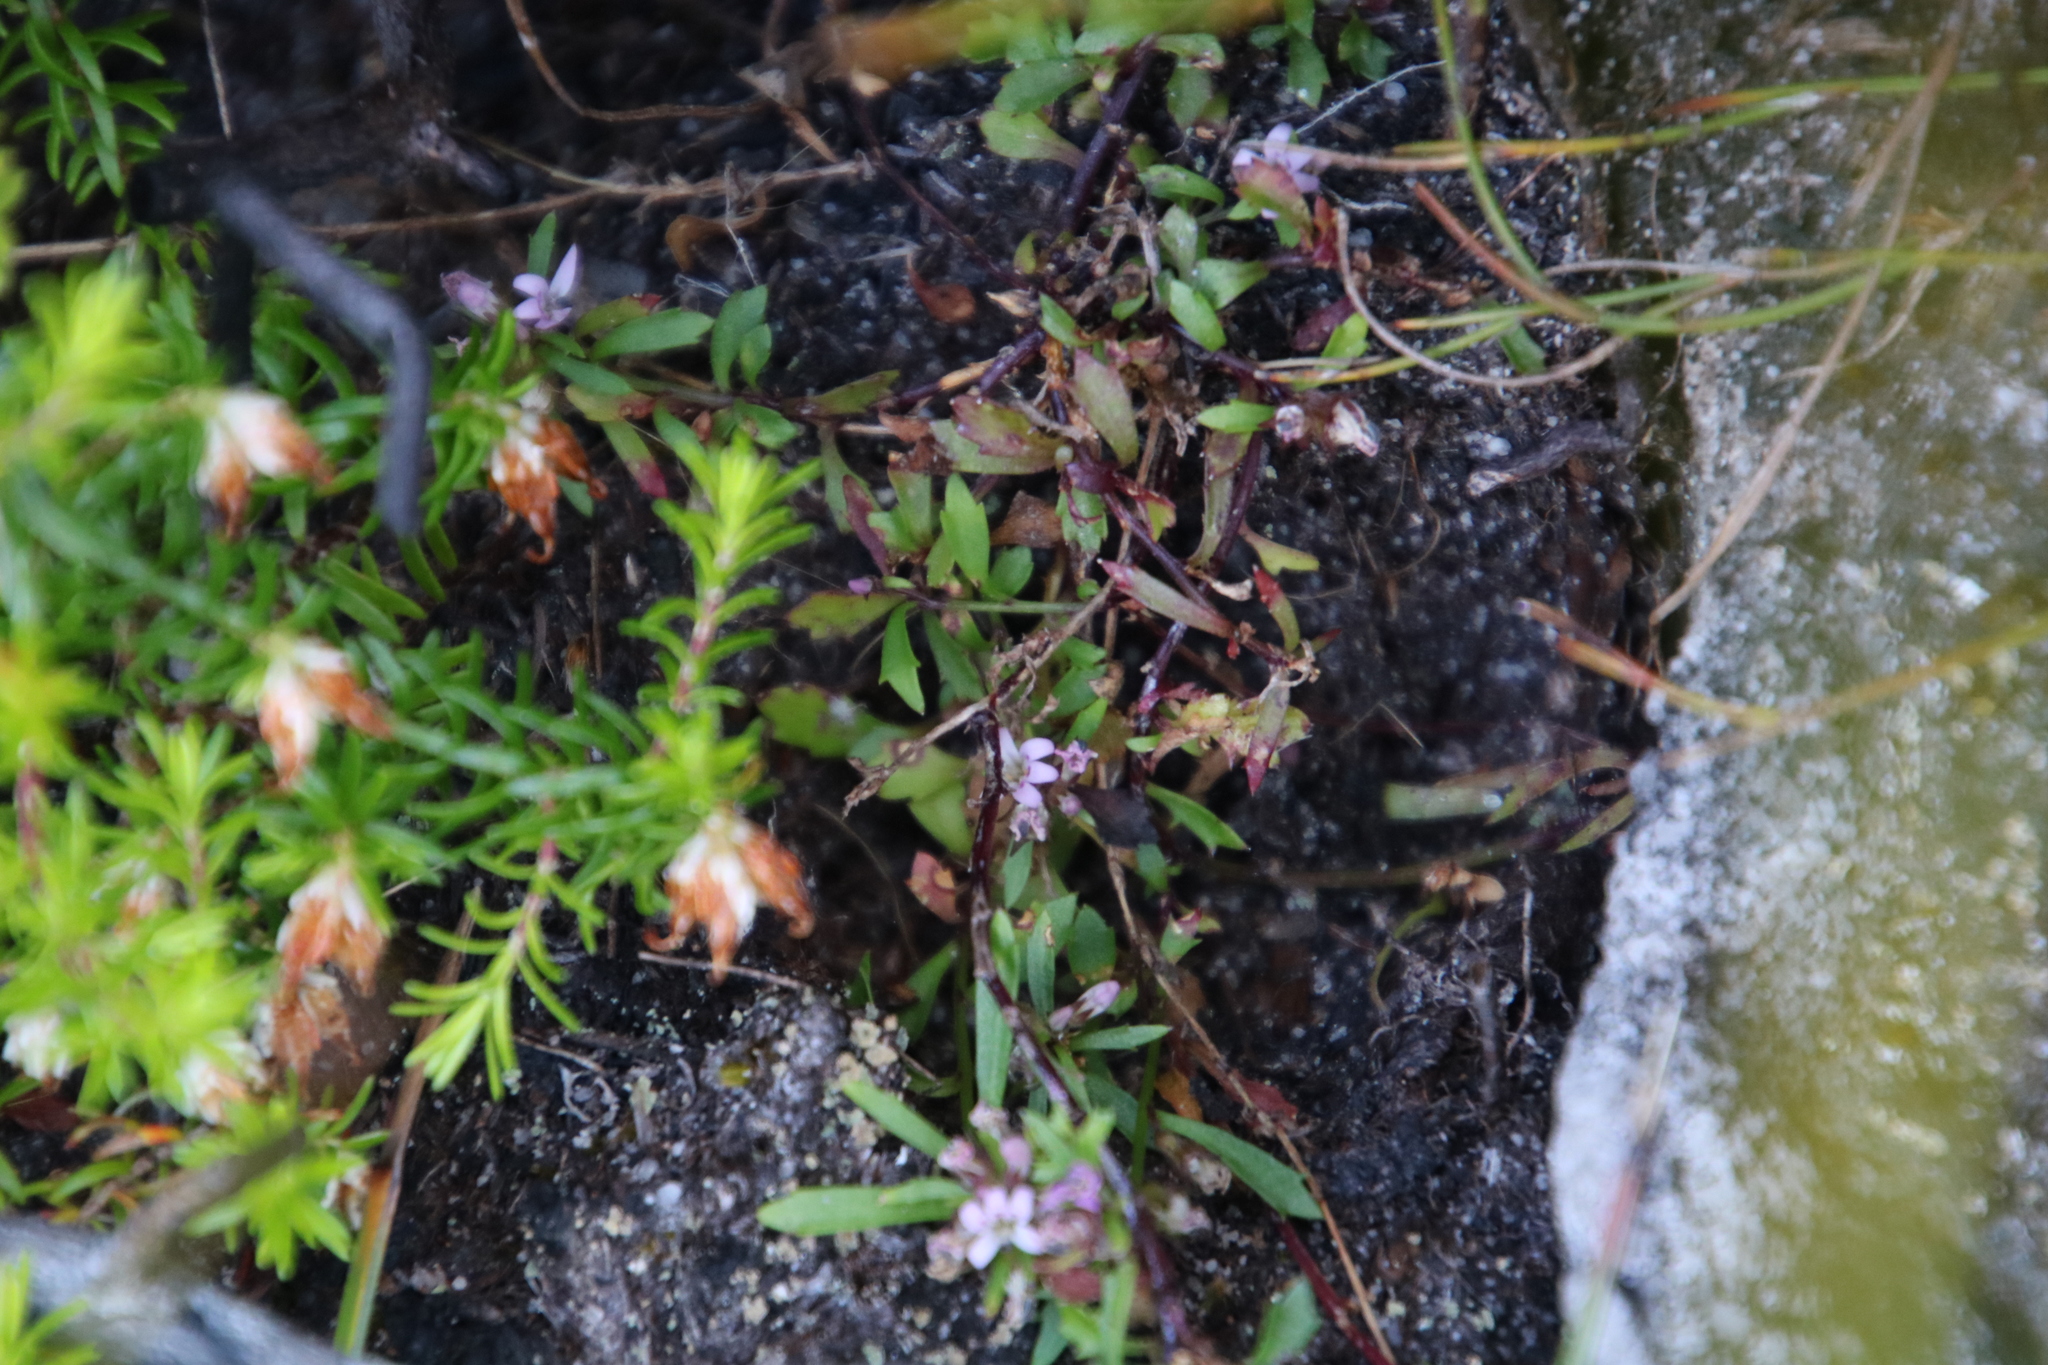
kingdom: Plantae
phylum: Tracheophyta
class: Magnoliopsida
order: Asterales
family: Campanulaceae
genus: Lobelia
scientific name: Lobelia eckloniana
